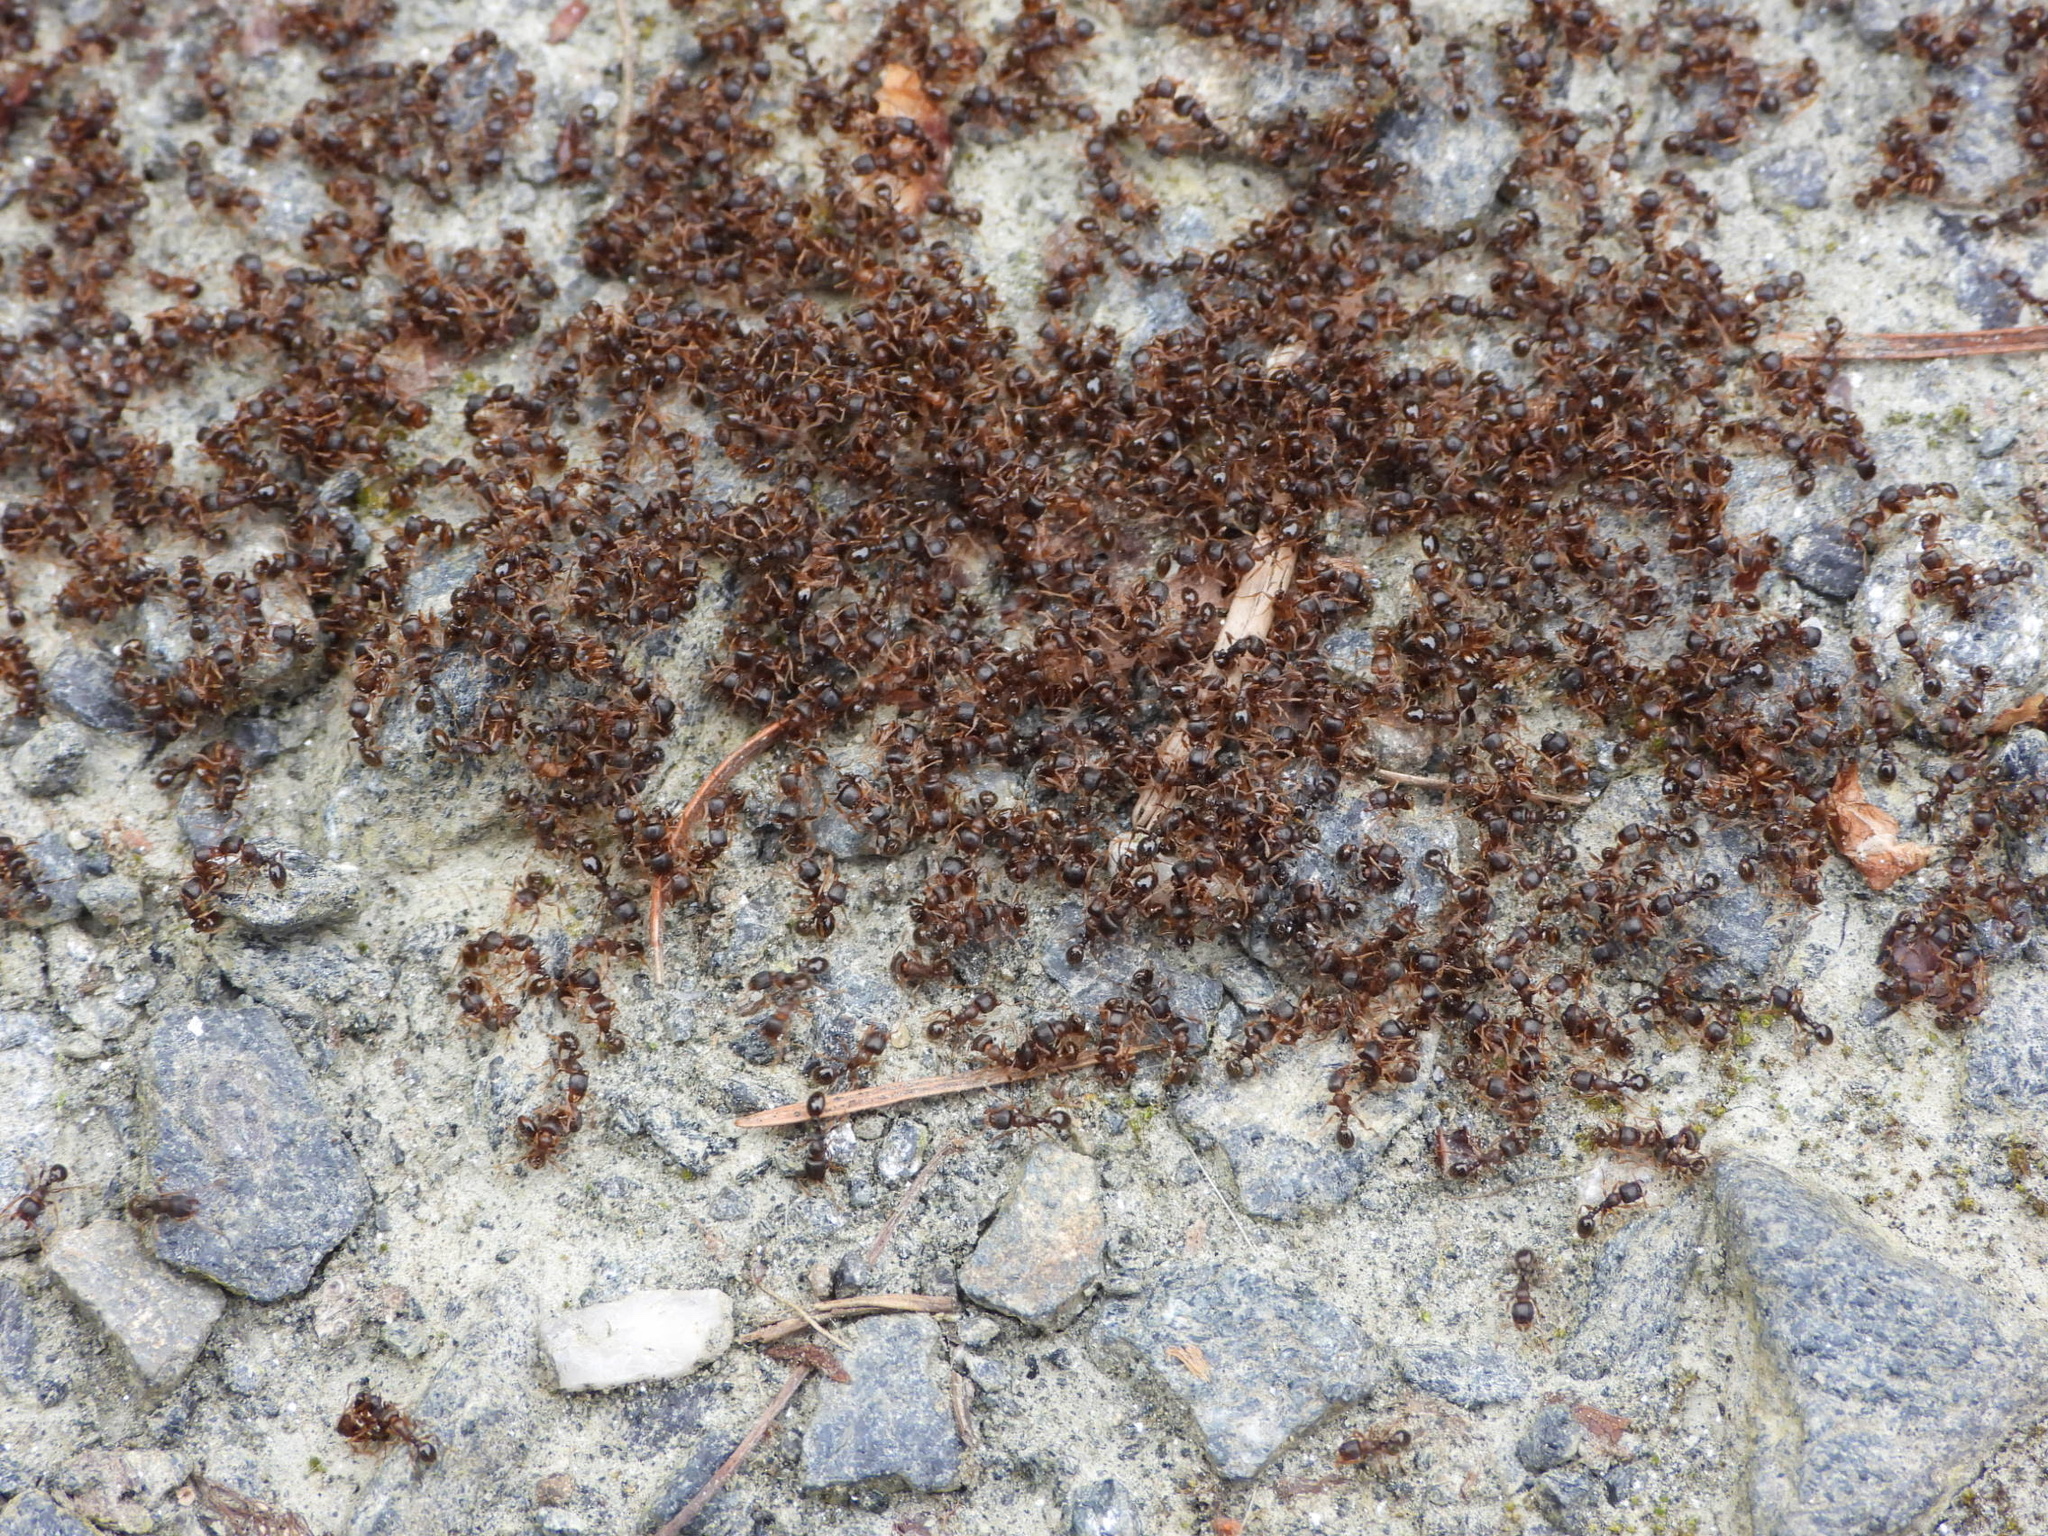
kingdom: Animalia
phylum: Arthropoda
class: Insecta
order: Hymenoptera
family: Formicidae
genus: Tetramorium
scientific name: Tetramorium immigrans
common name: Pavement ant
